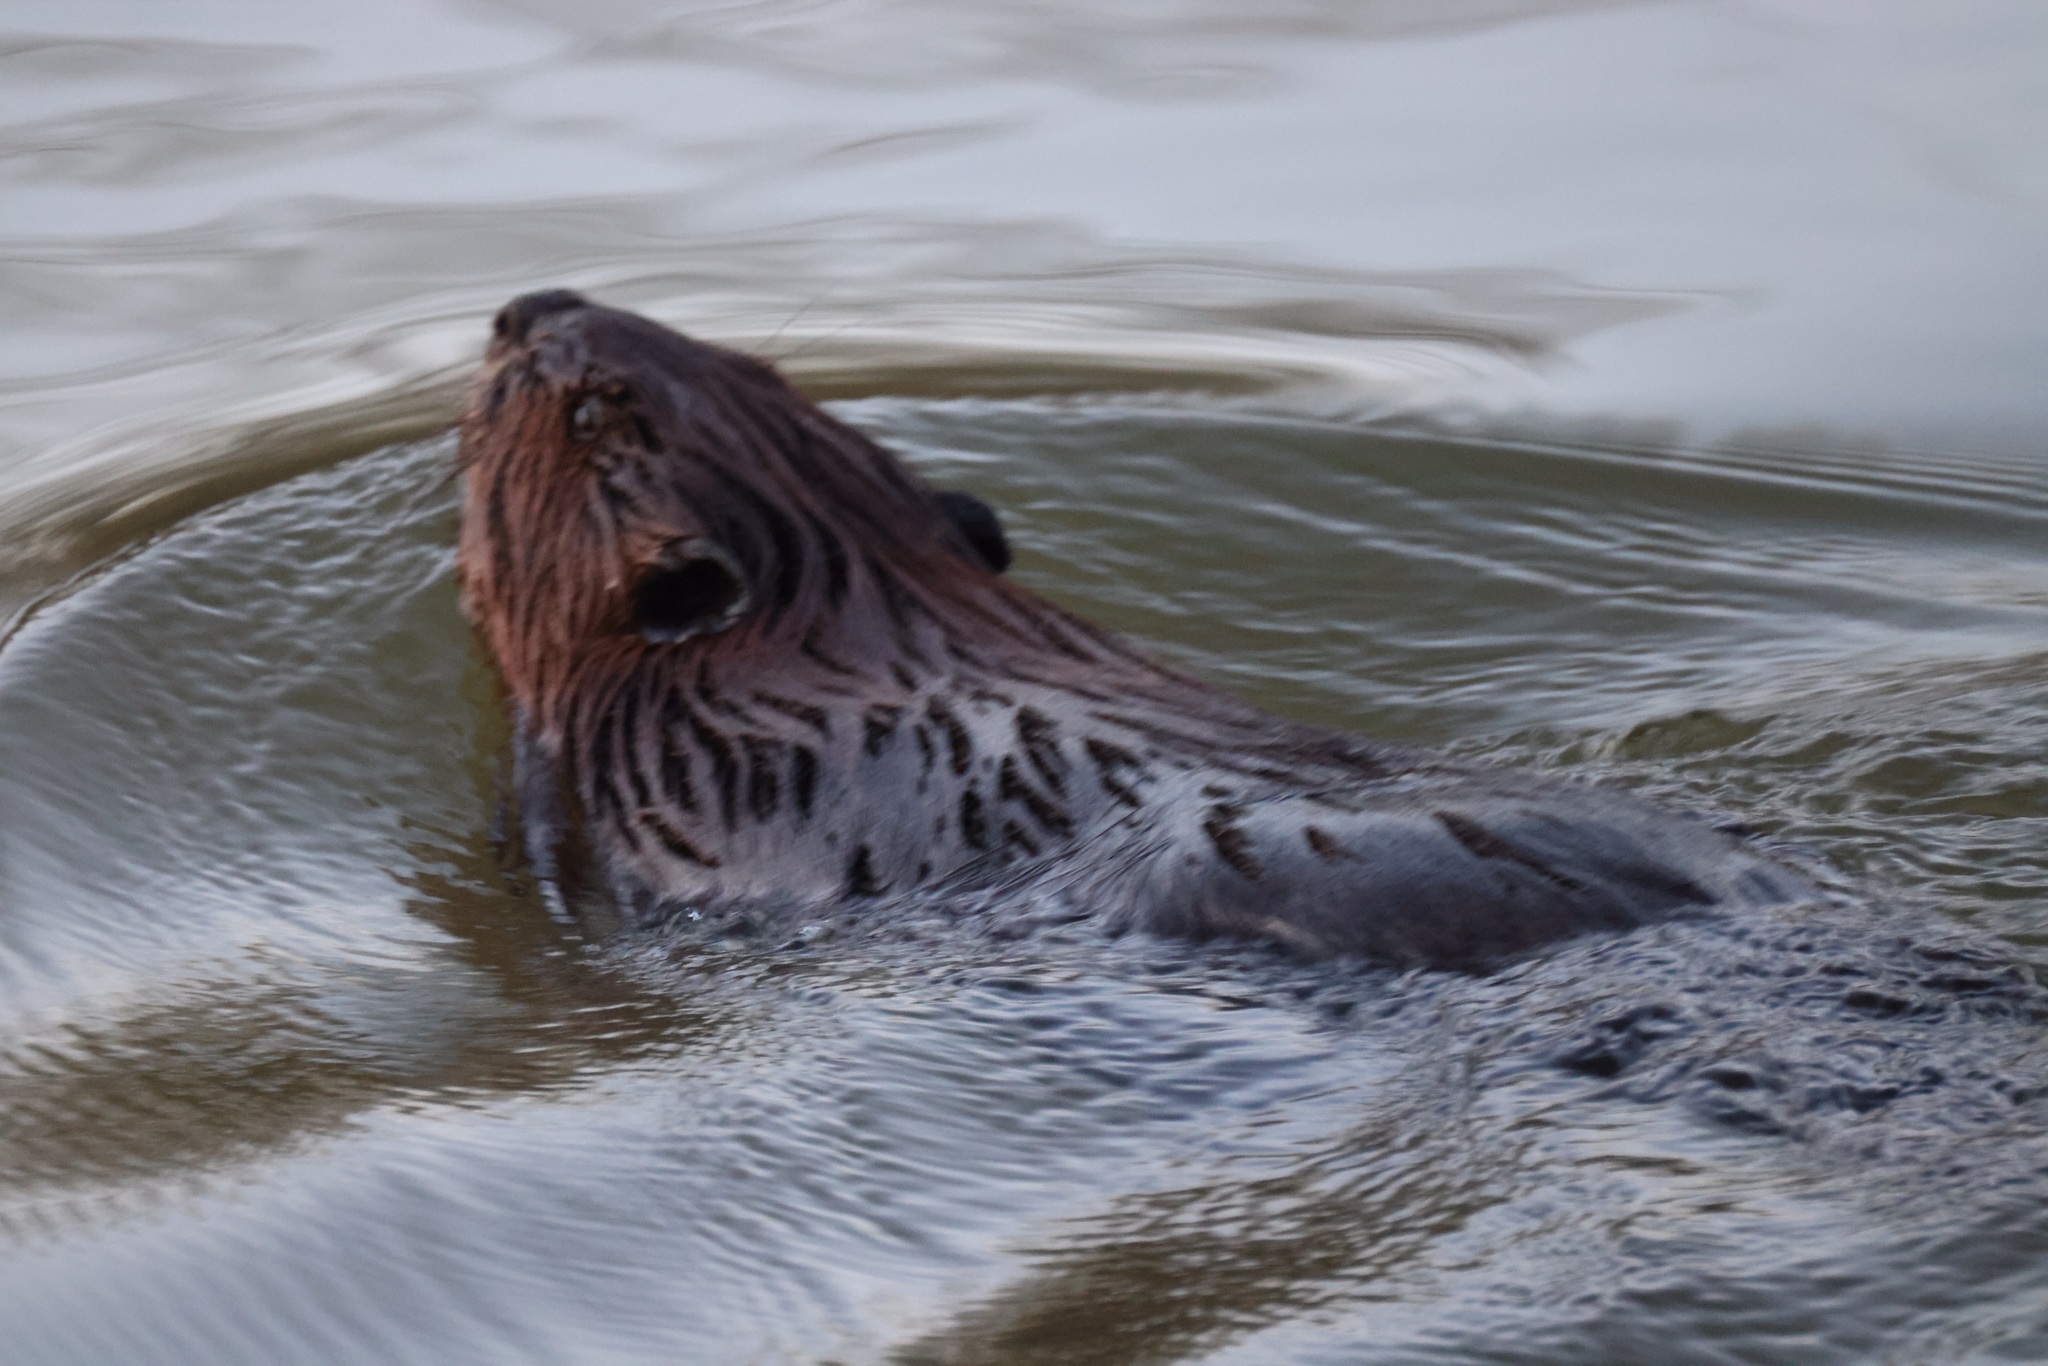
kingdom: Animalia
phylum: Chordata
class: Mammalia
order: Rodentia
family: Castoridae
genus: Castor
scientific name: Castor canadensis
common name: American beaver
